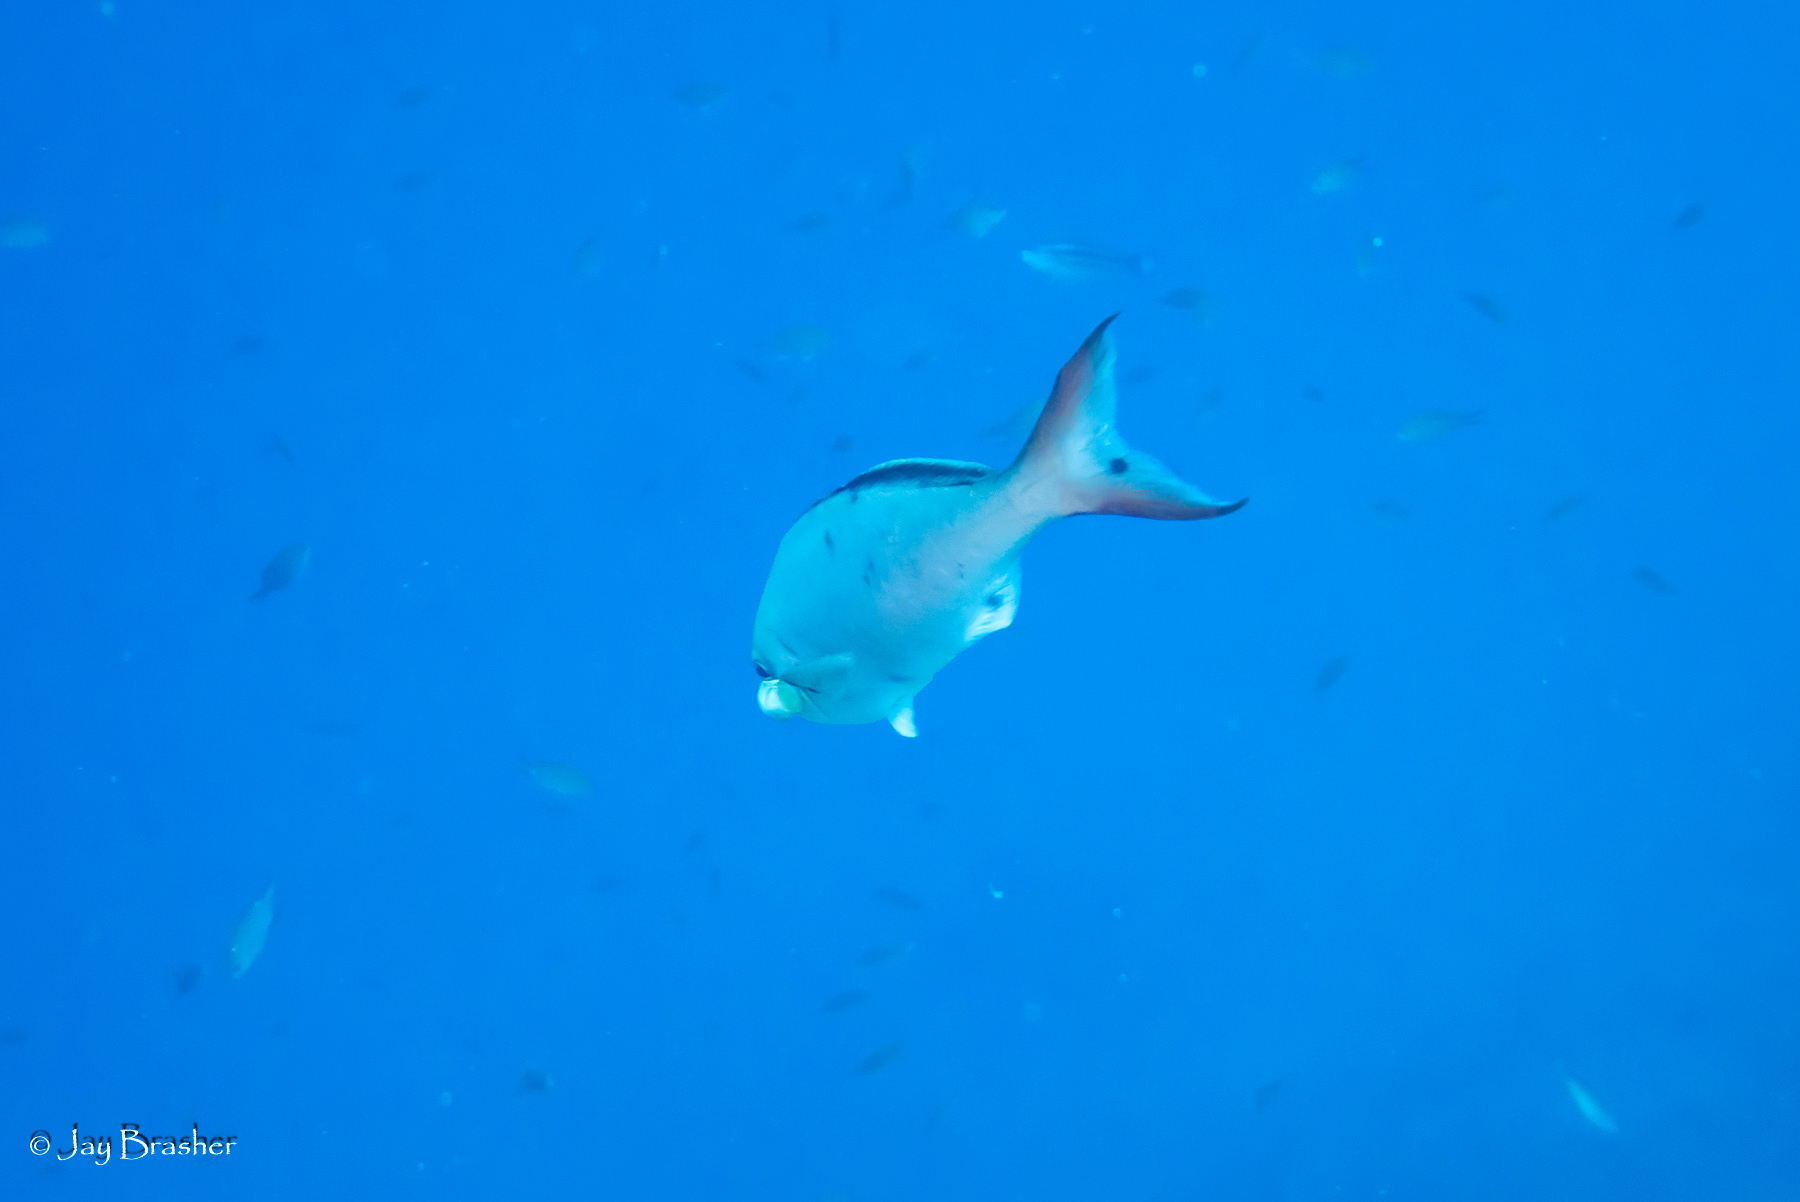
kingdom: Animalia
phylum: Chordata
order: Perciformes
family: Serranidae
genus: Paranthias
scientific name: Paranthias furcifer
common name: Creole-fish
